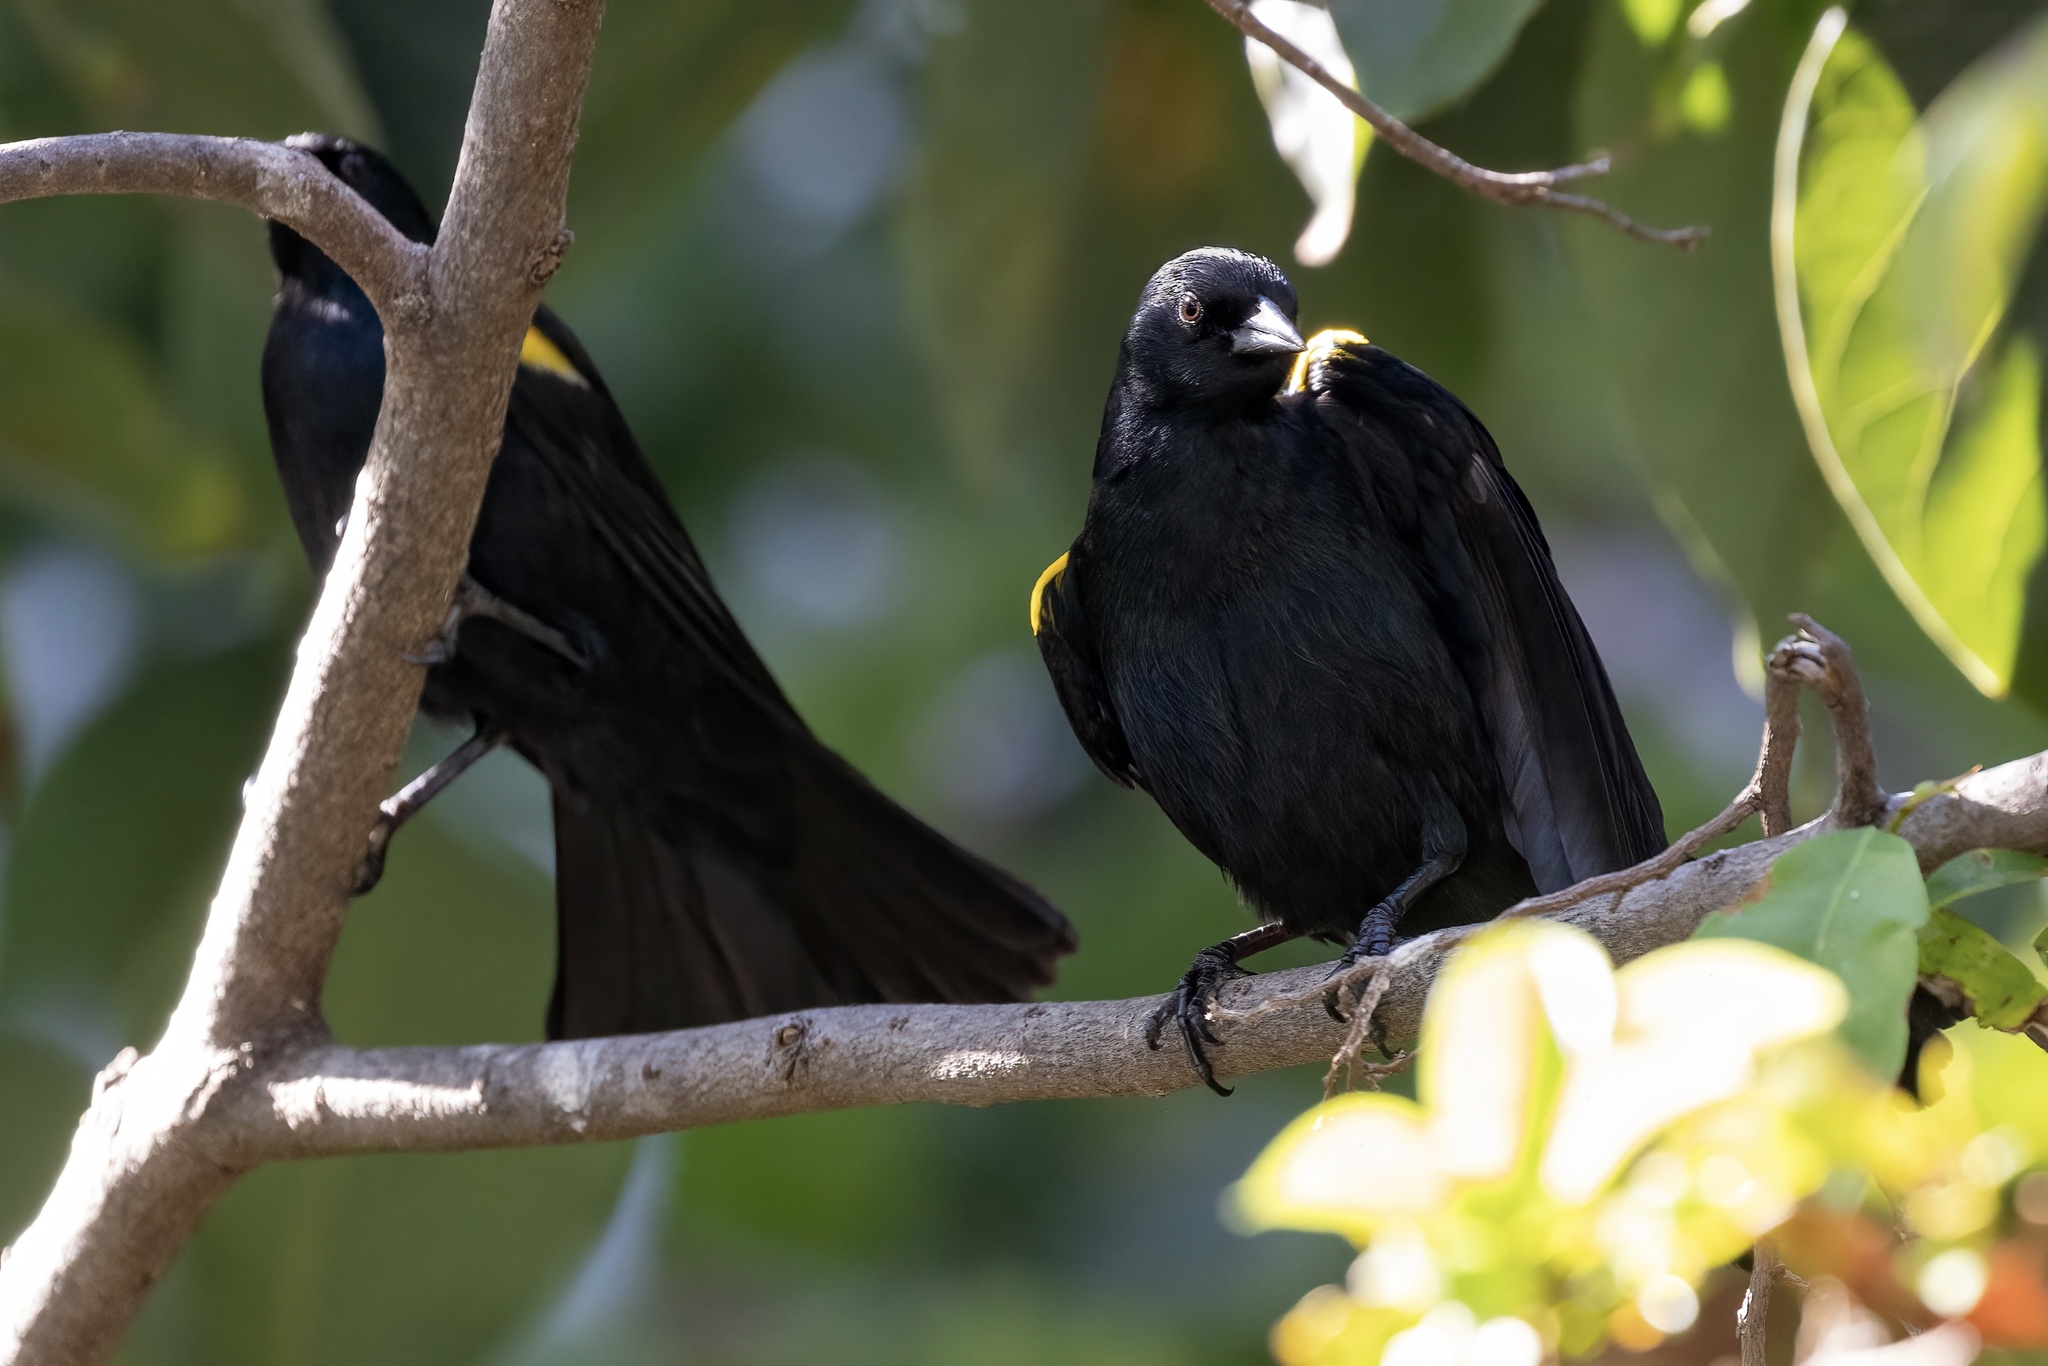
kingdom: Animalia
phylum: Chordata
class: Aves
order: Passeriformes
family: Icteridae
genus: Agelaius
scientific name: Agelaius xanthomus
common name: Yellow-shouldered blackbird
